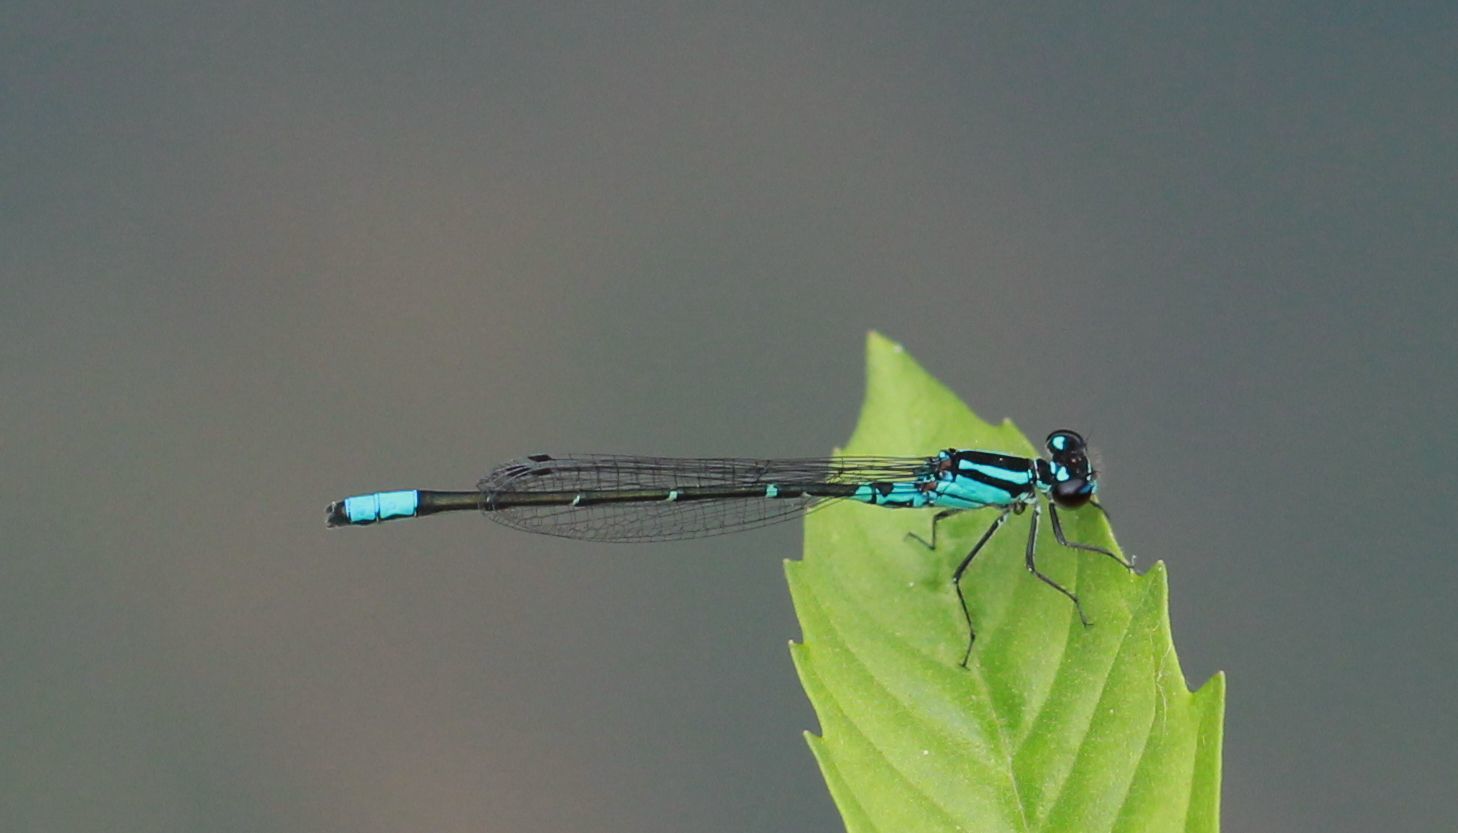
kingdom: Animalia
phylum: Arthropoda
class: Insecta
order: Odonata
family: Coenagrionidae
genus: Enallagma
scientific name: Enallagma geminatum
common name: Skimming bluet
